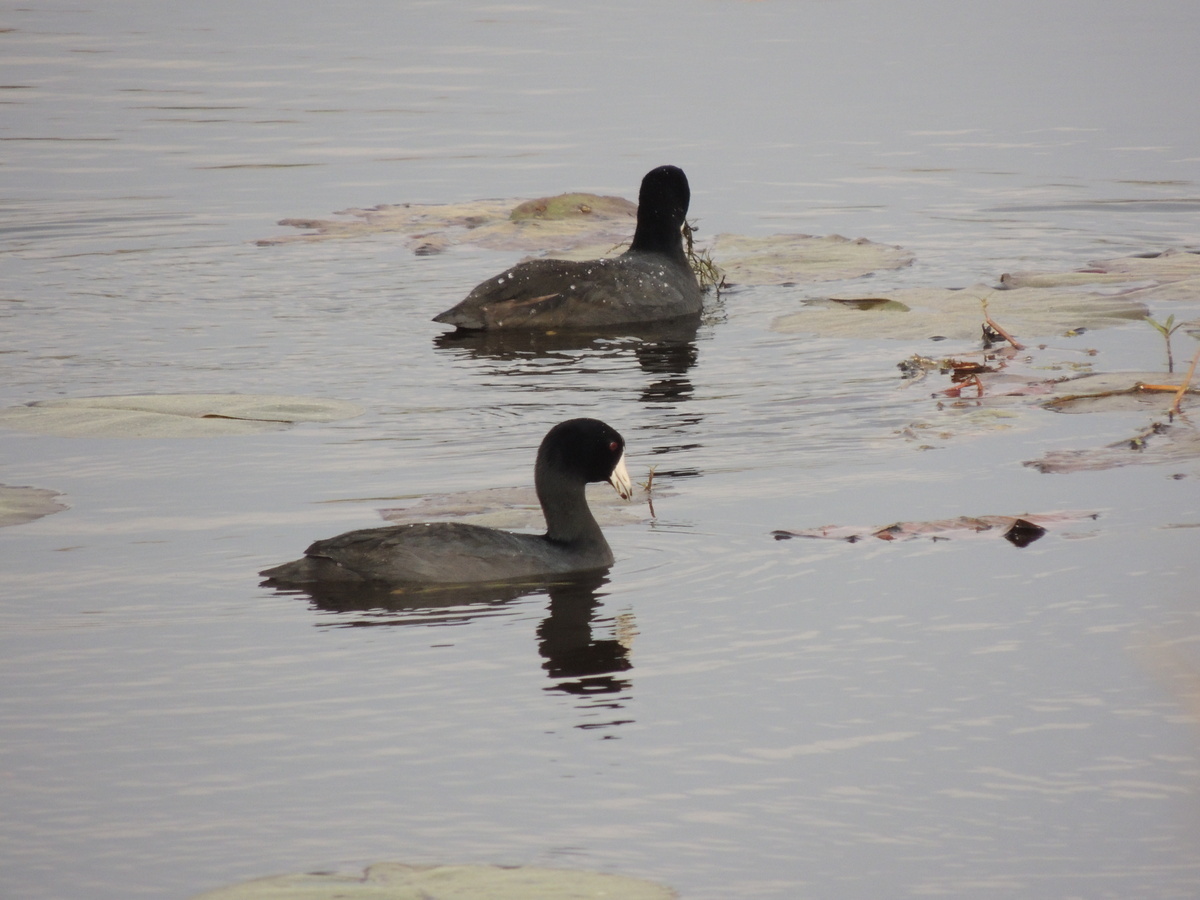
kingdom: Animalia
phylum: Chordata
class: Aves
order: Gruiformes
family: Rallidae
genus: Fulica
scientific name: Fulica americana
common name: American coot
